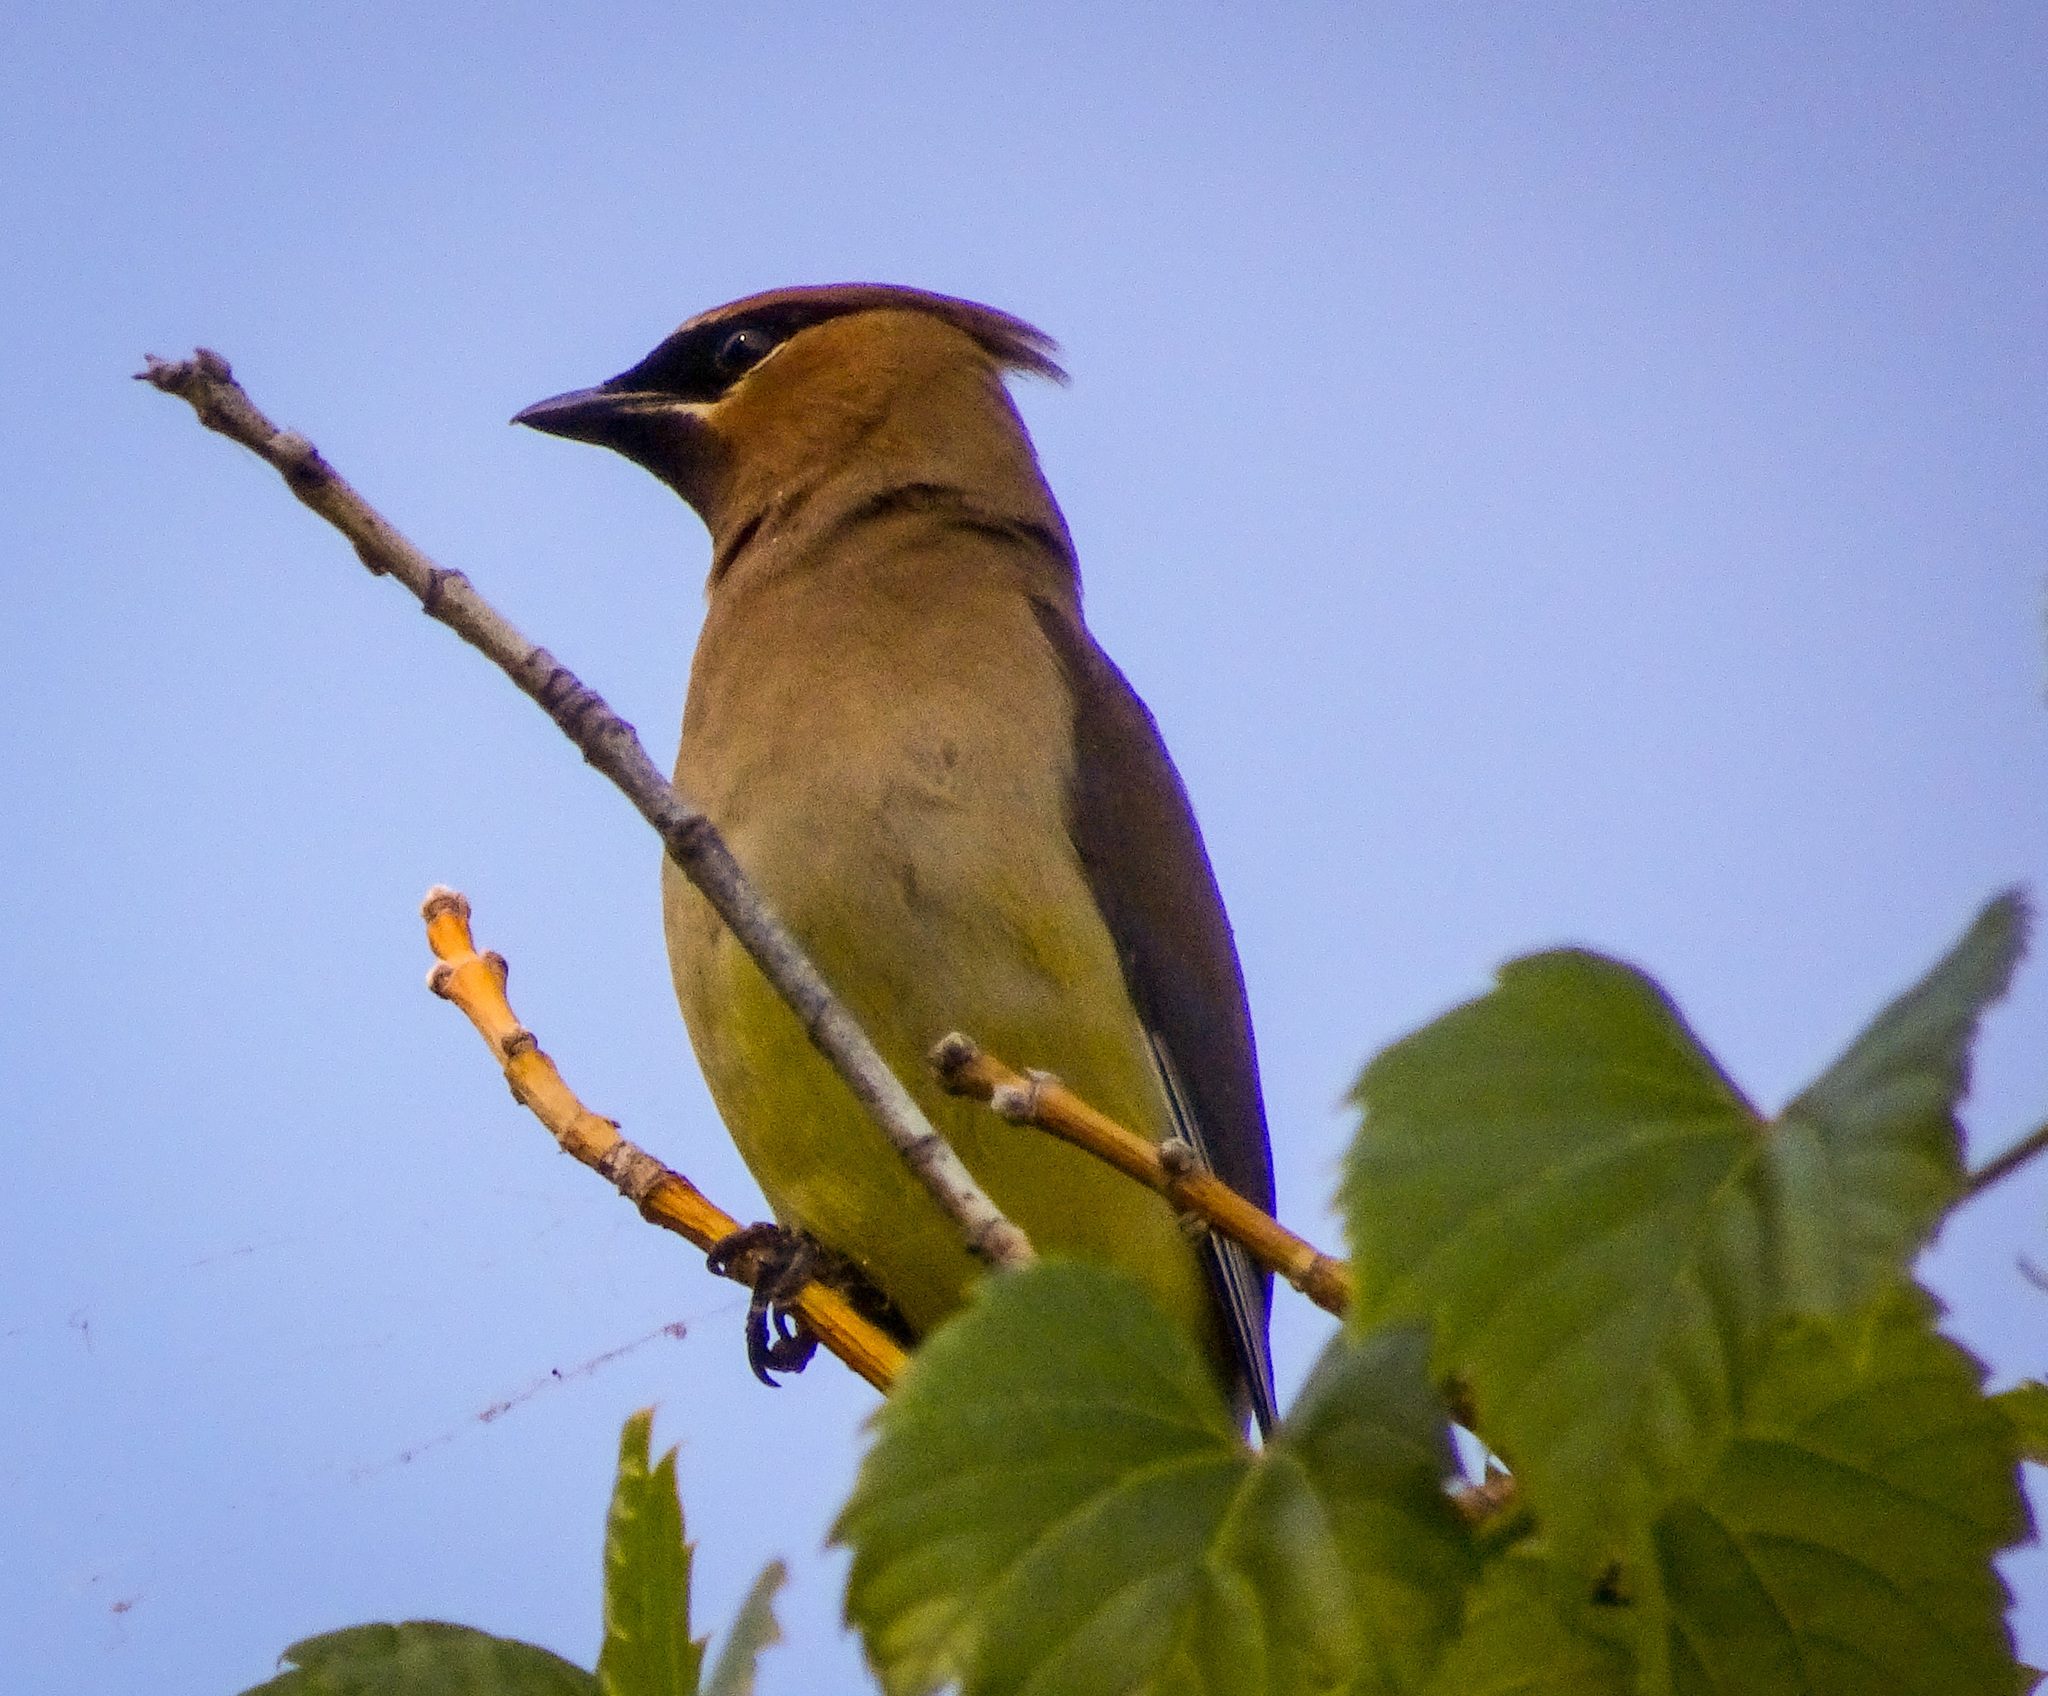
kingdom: Animalia
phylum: Chordata
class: Aves
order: Passeriformes
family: Bombycillidae
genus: Bombycilla
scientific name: Bombycilla cedrorum
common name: Cedar waxwing
